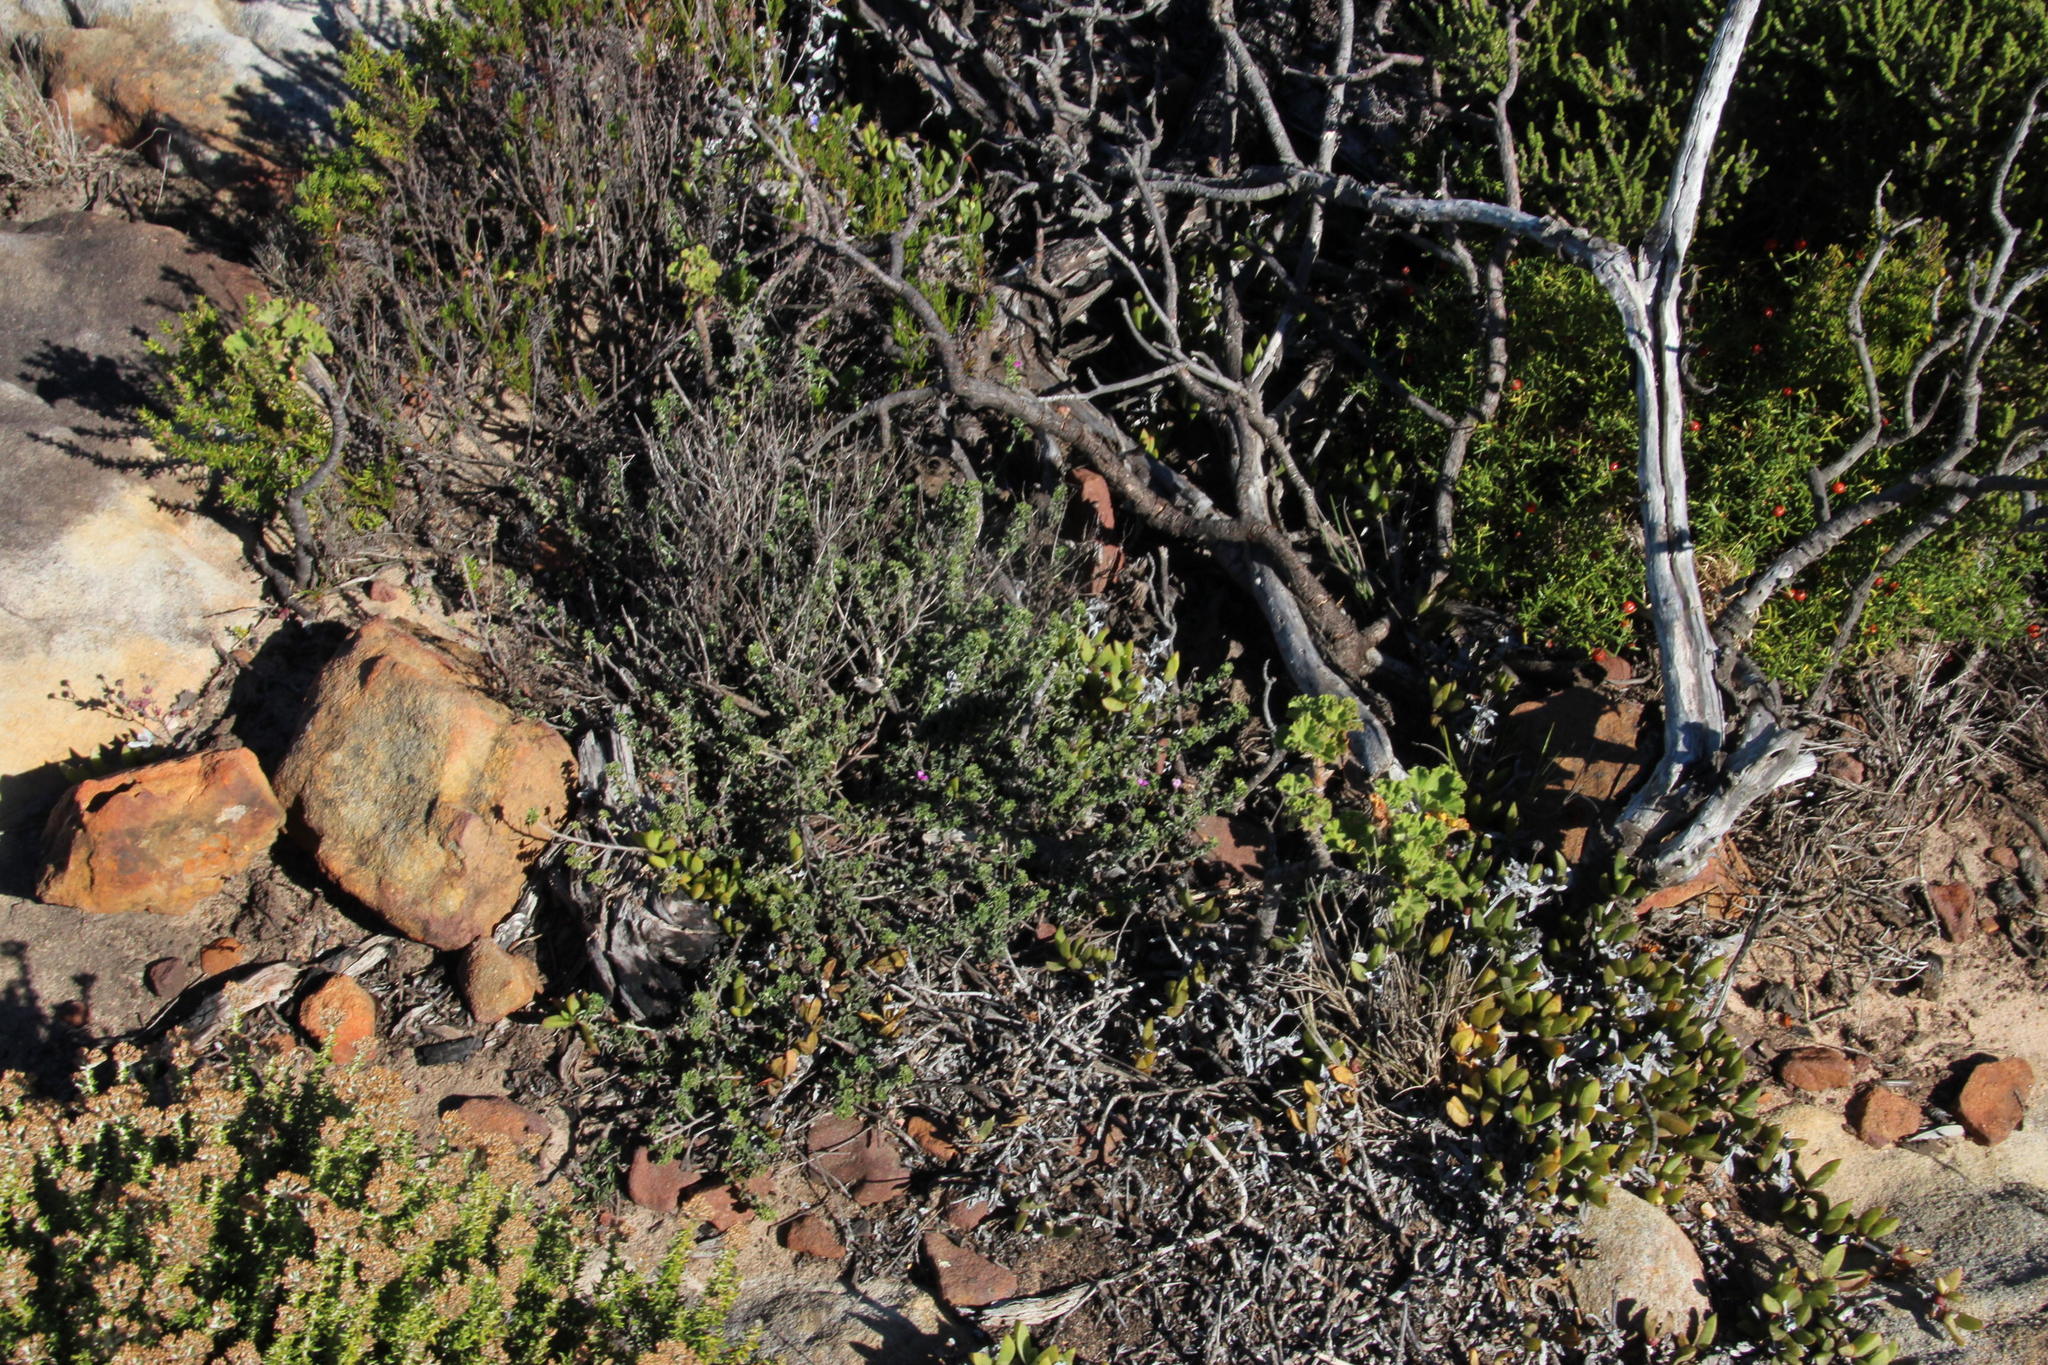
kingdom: Plantae
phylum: Tracheophyta
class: Magnoliopsida
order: Fabales
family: Fabaceae
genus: Indigofera
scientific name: Indigofera candolleana
